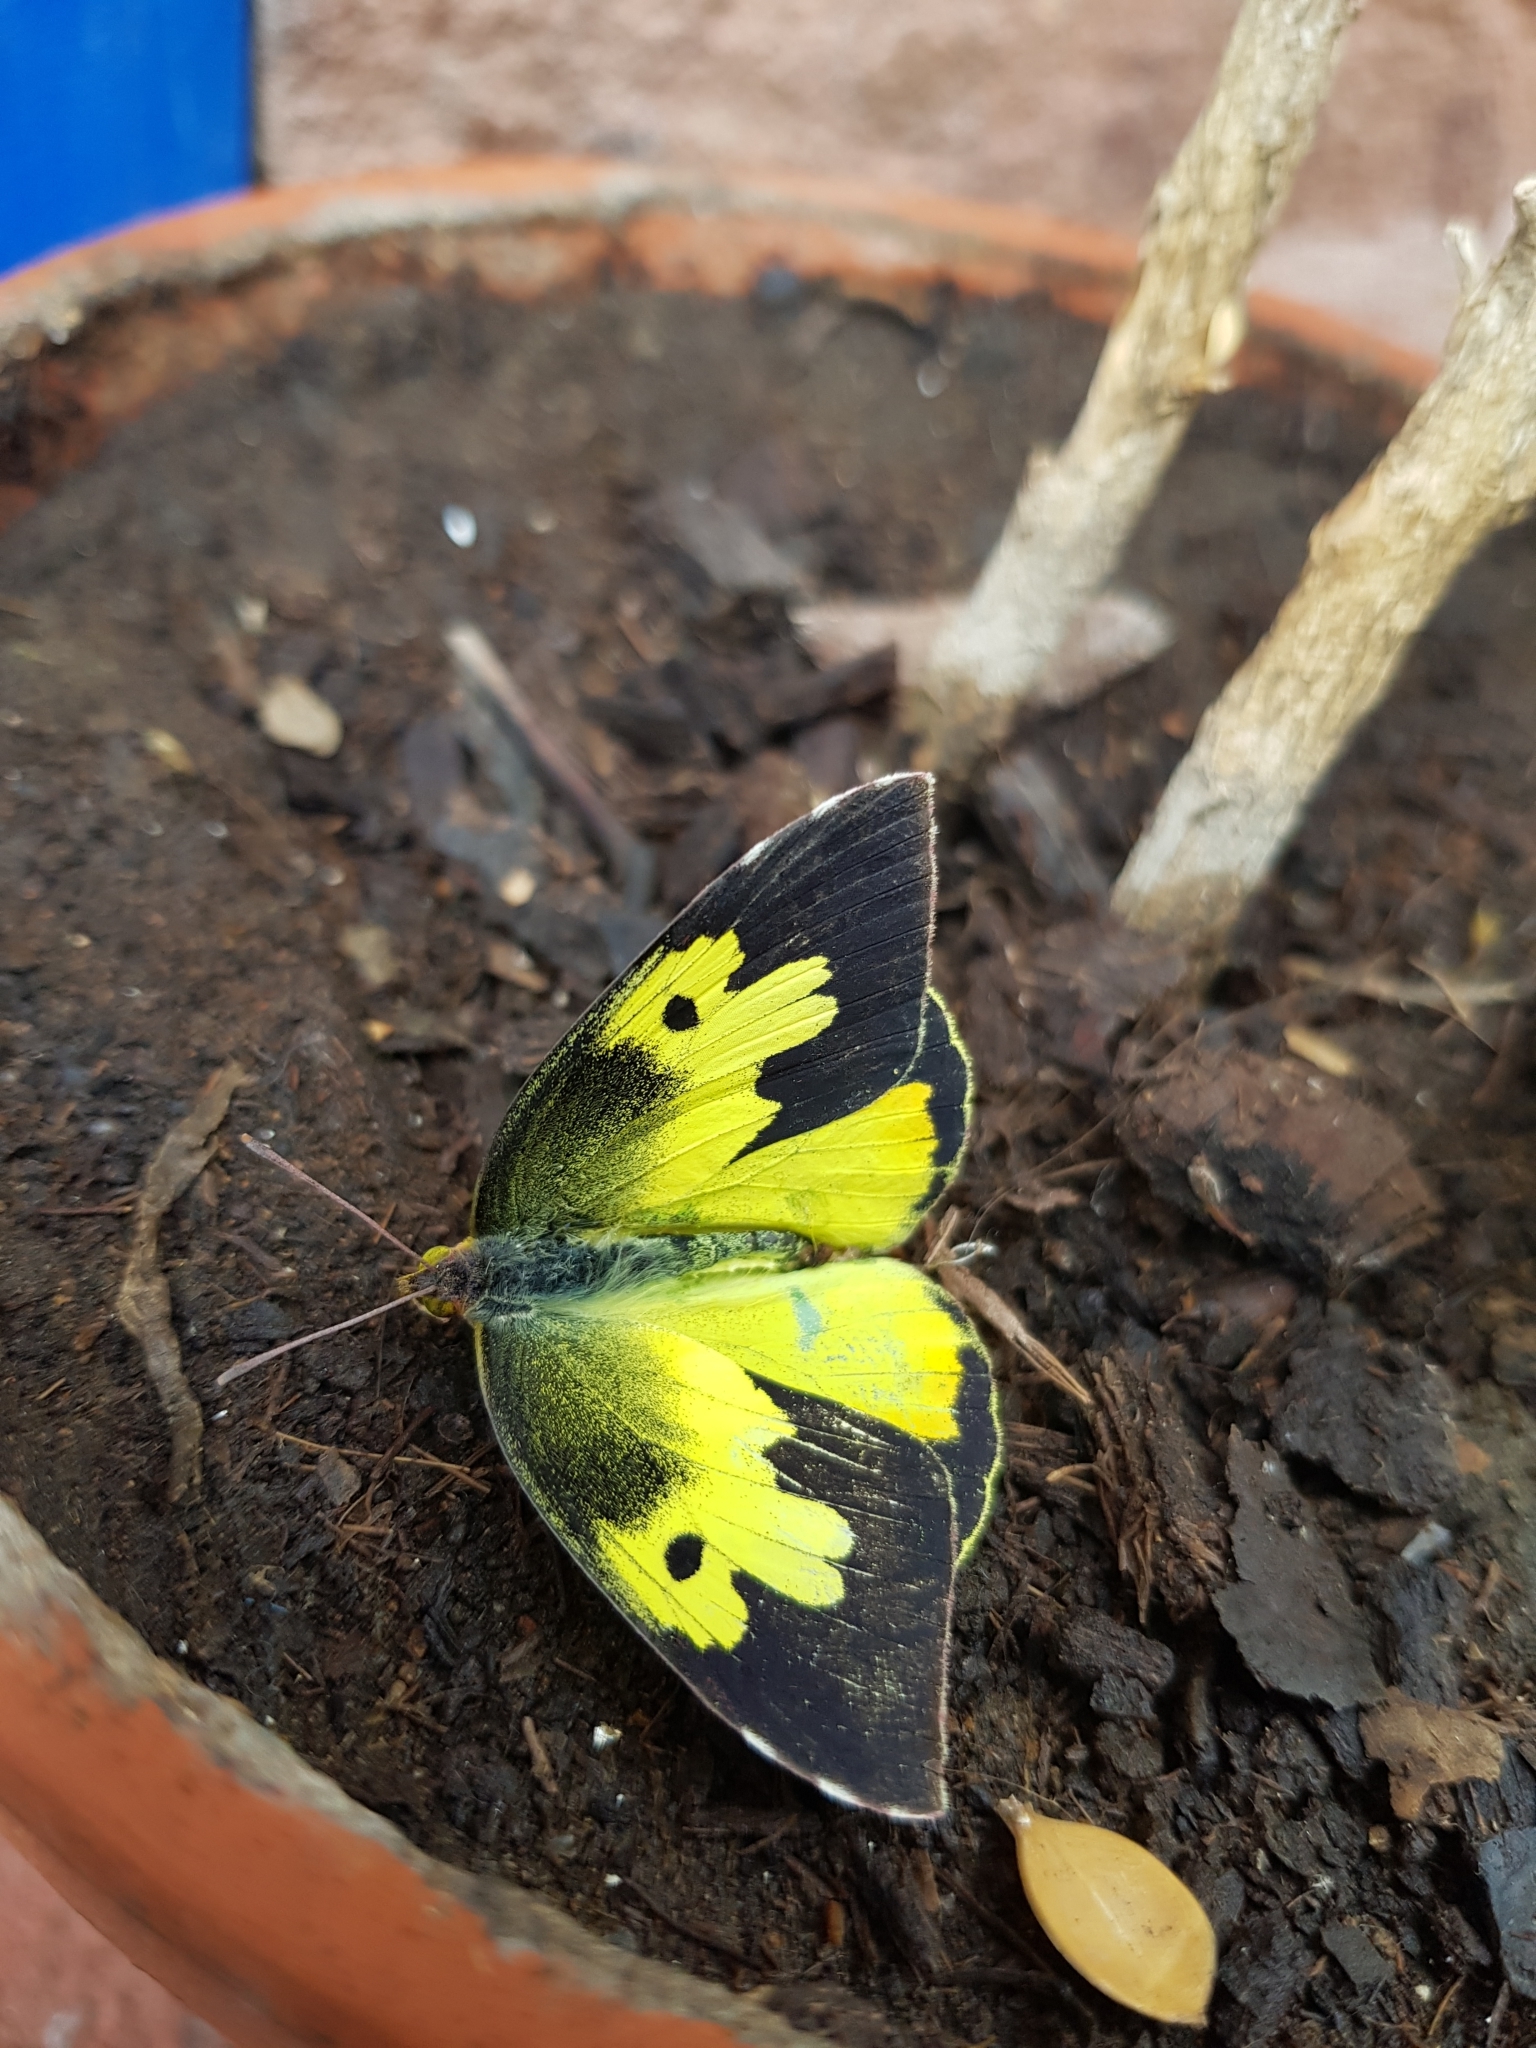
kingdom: Animalia
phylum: Arthropoda
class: Insecta
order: Lepidoptera
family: Pieridae
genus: Zerene
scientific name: Zerene cesonia
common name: Southern dogface
